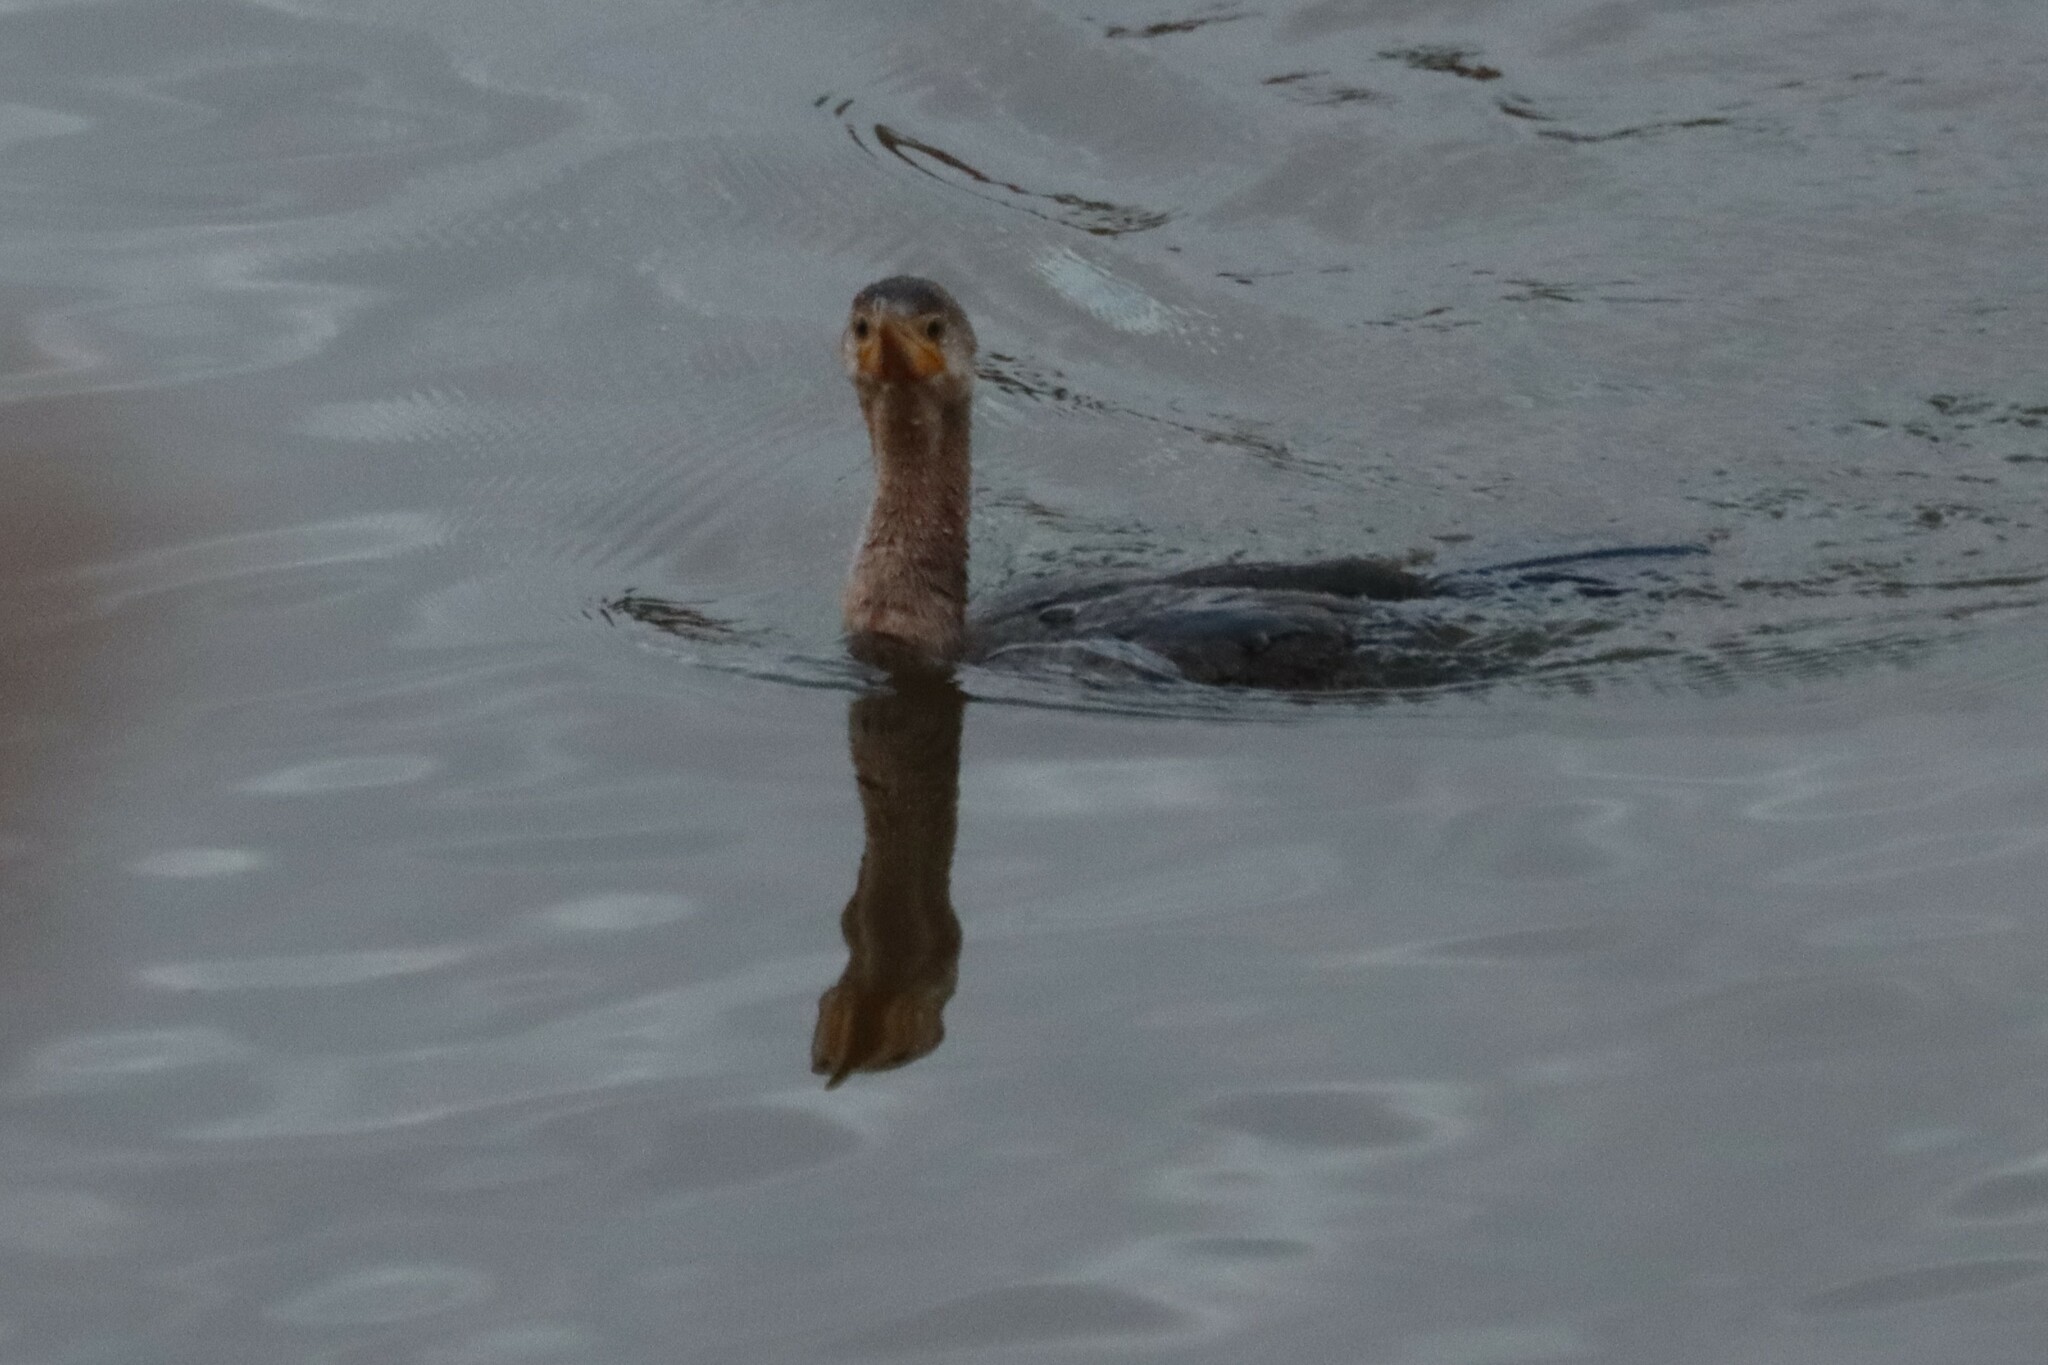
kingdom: Animalia
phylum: Chordata
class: Aves
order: Suliformes
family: Phalacrocoracidae
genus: Phalacrocorax
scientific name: Phalacrocorax auritus
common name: Double-crested cormorant
